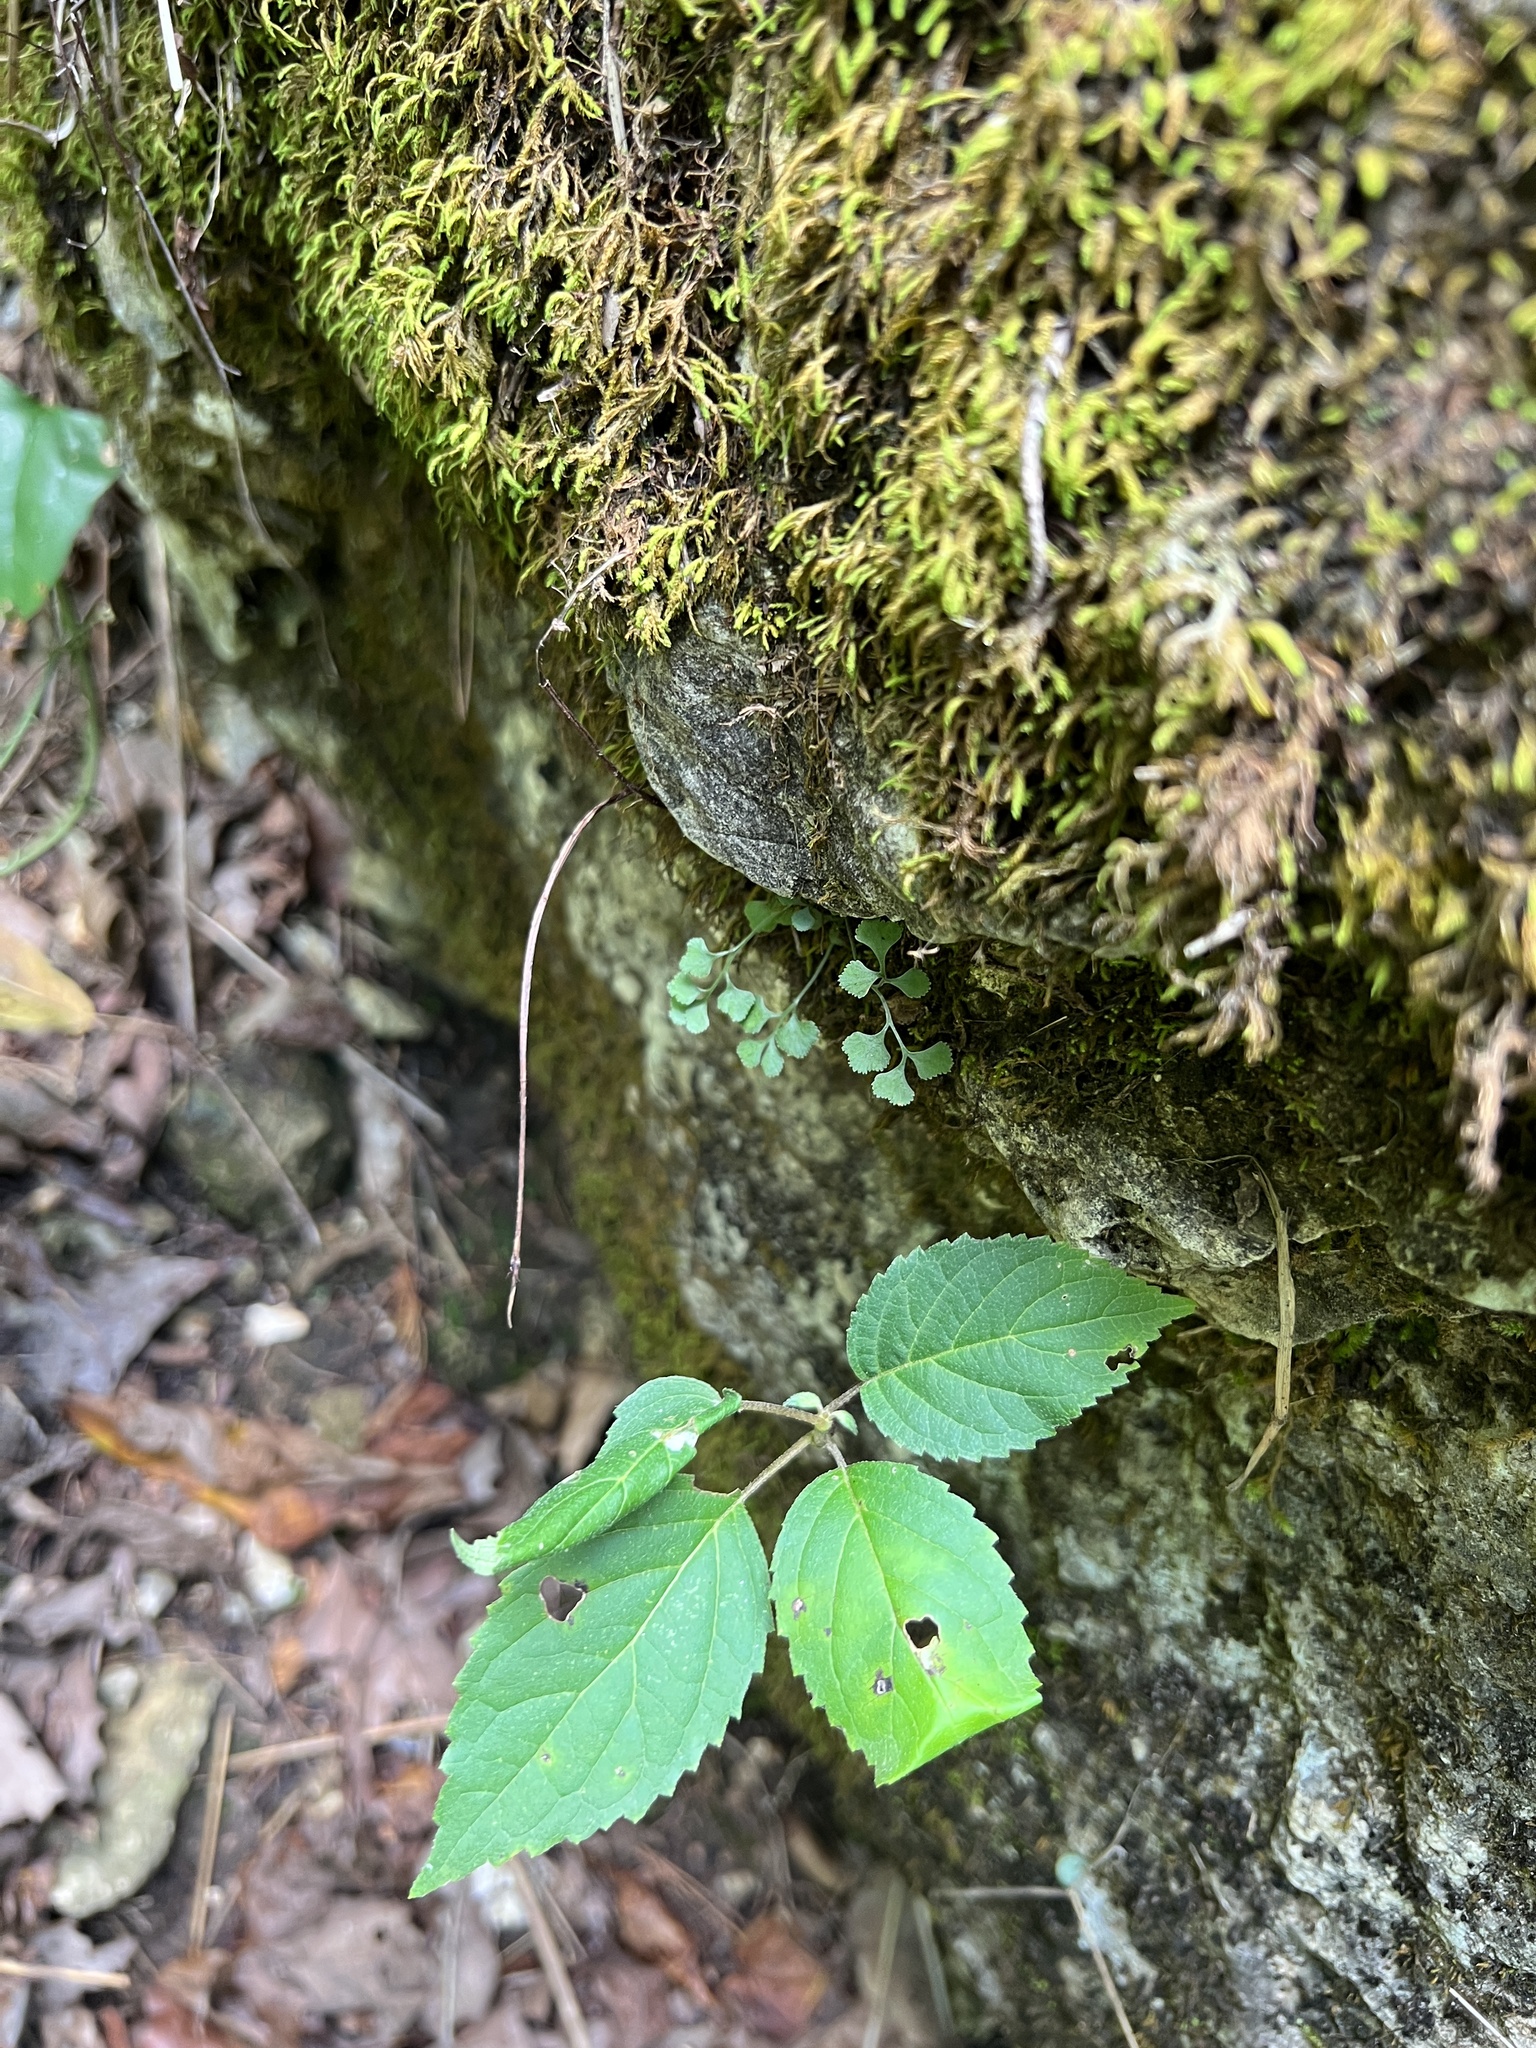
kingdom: Plantae
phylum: Tracheophyta
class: Polypodiopsida
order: Polypodiales
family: Aspleniaceae
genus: Asplenium
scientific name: Asplenium ruta-muraria
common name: Wall-rue
